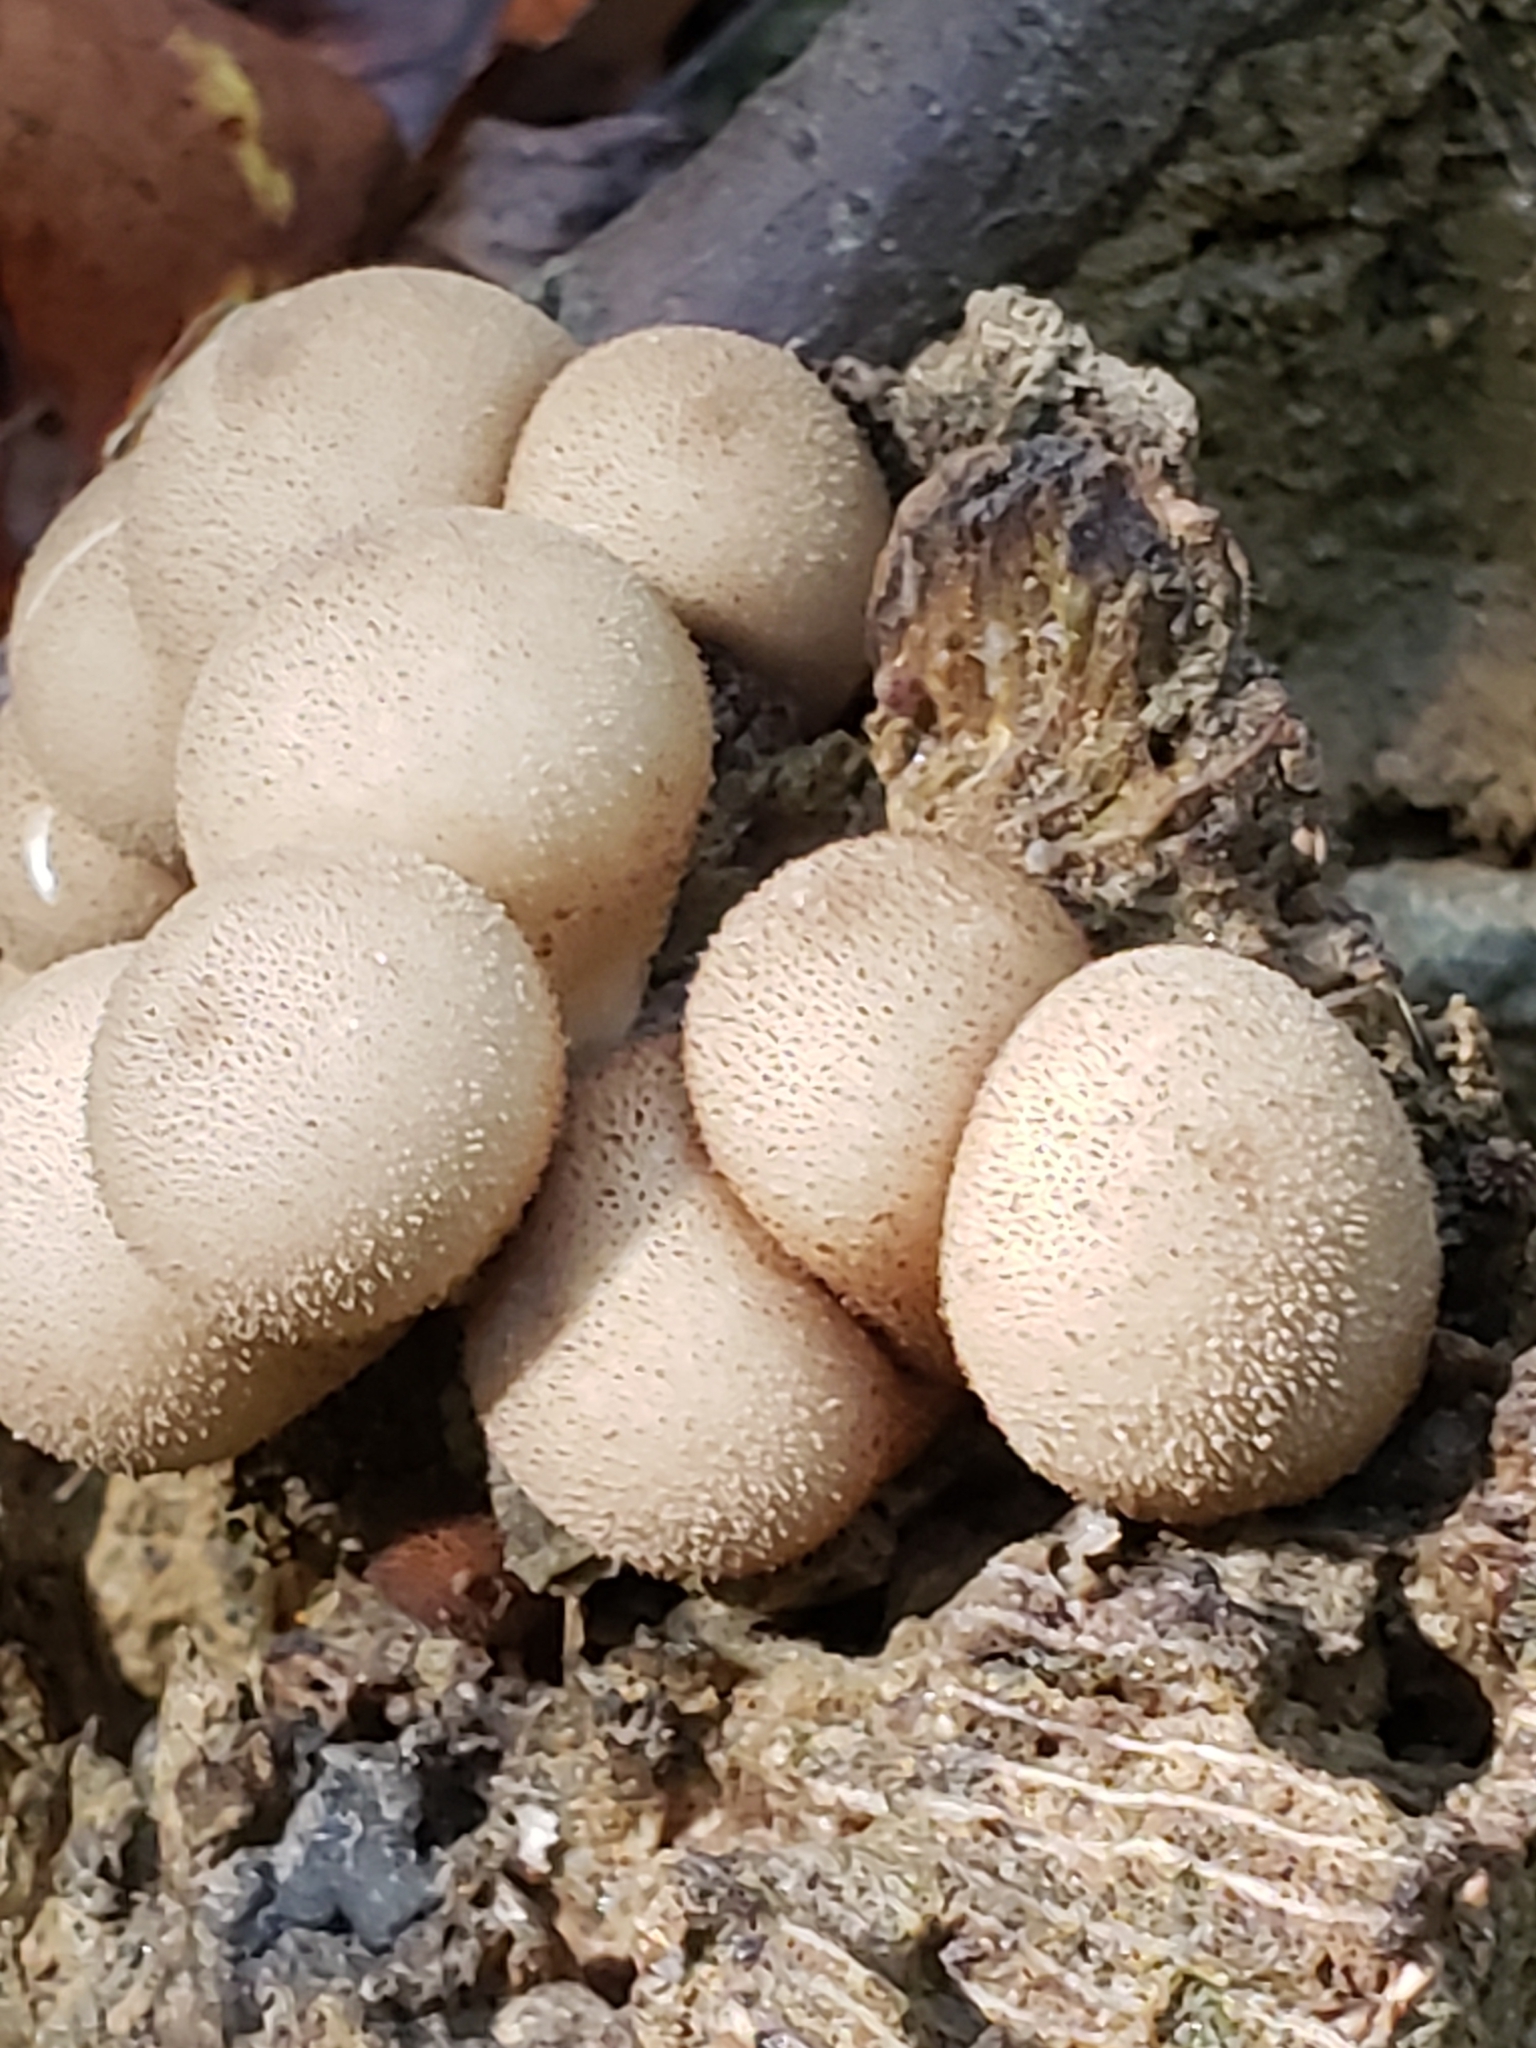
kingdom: Fungi
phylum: Basidiomycota
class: Agaricomycetes
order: Agaricales
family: Lycoperdaceae
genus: Apioperdon
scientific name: Apioperdon pyriforme
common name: Pear-shaped puffball
